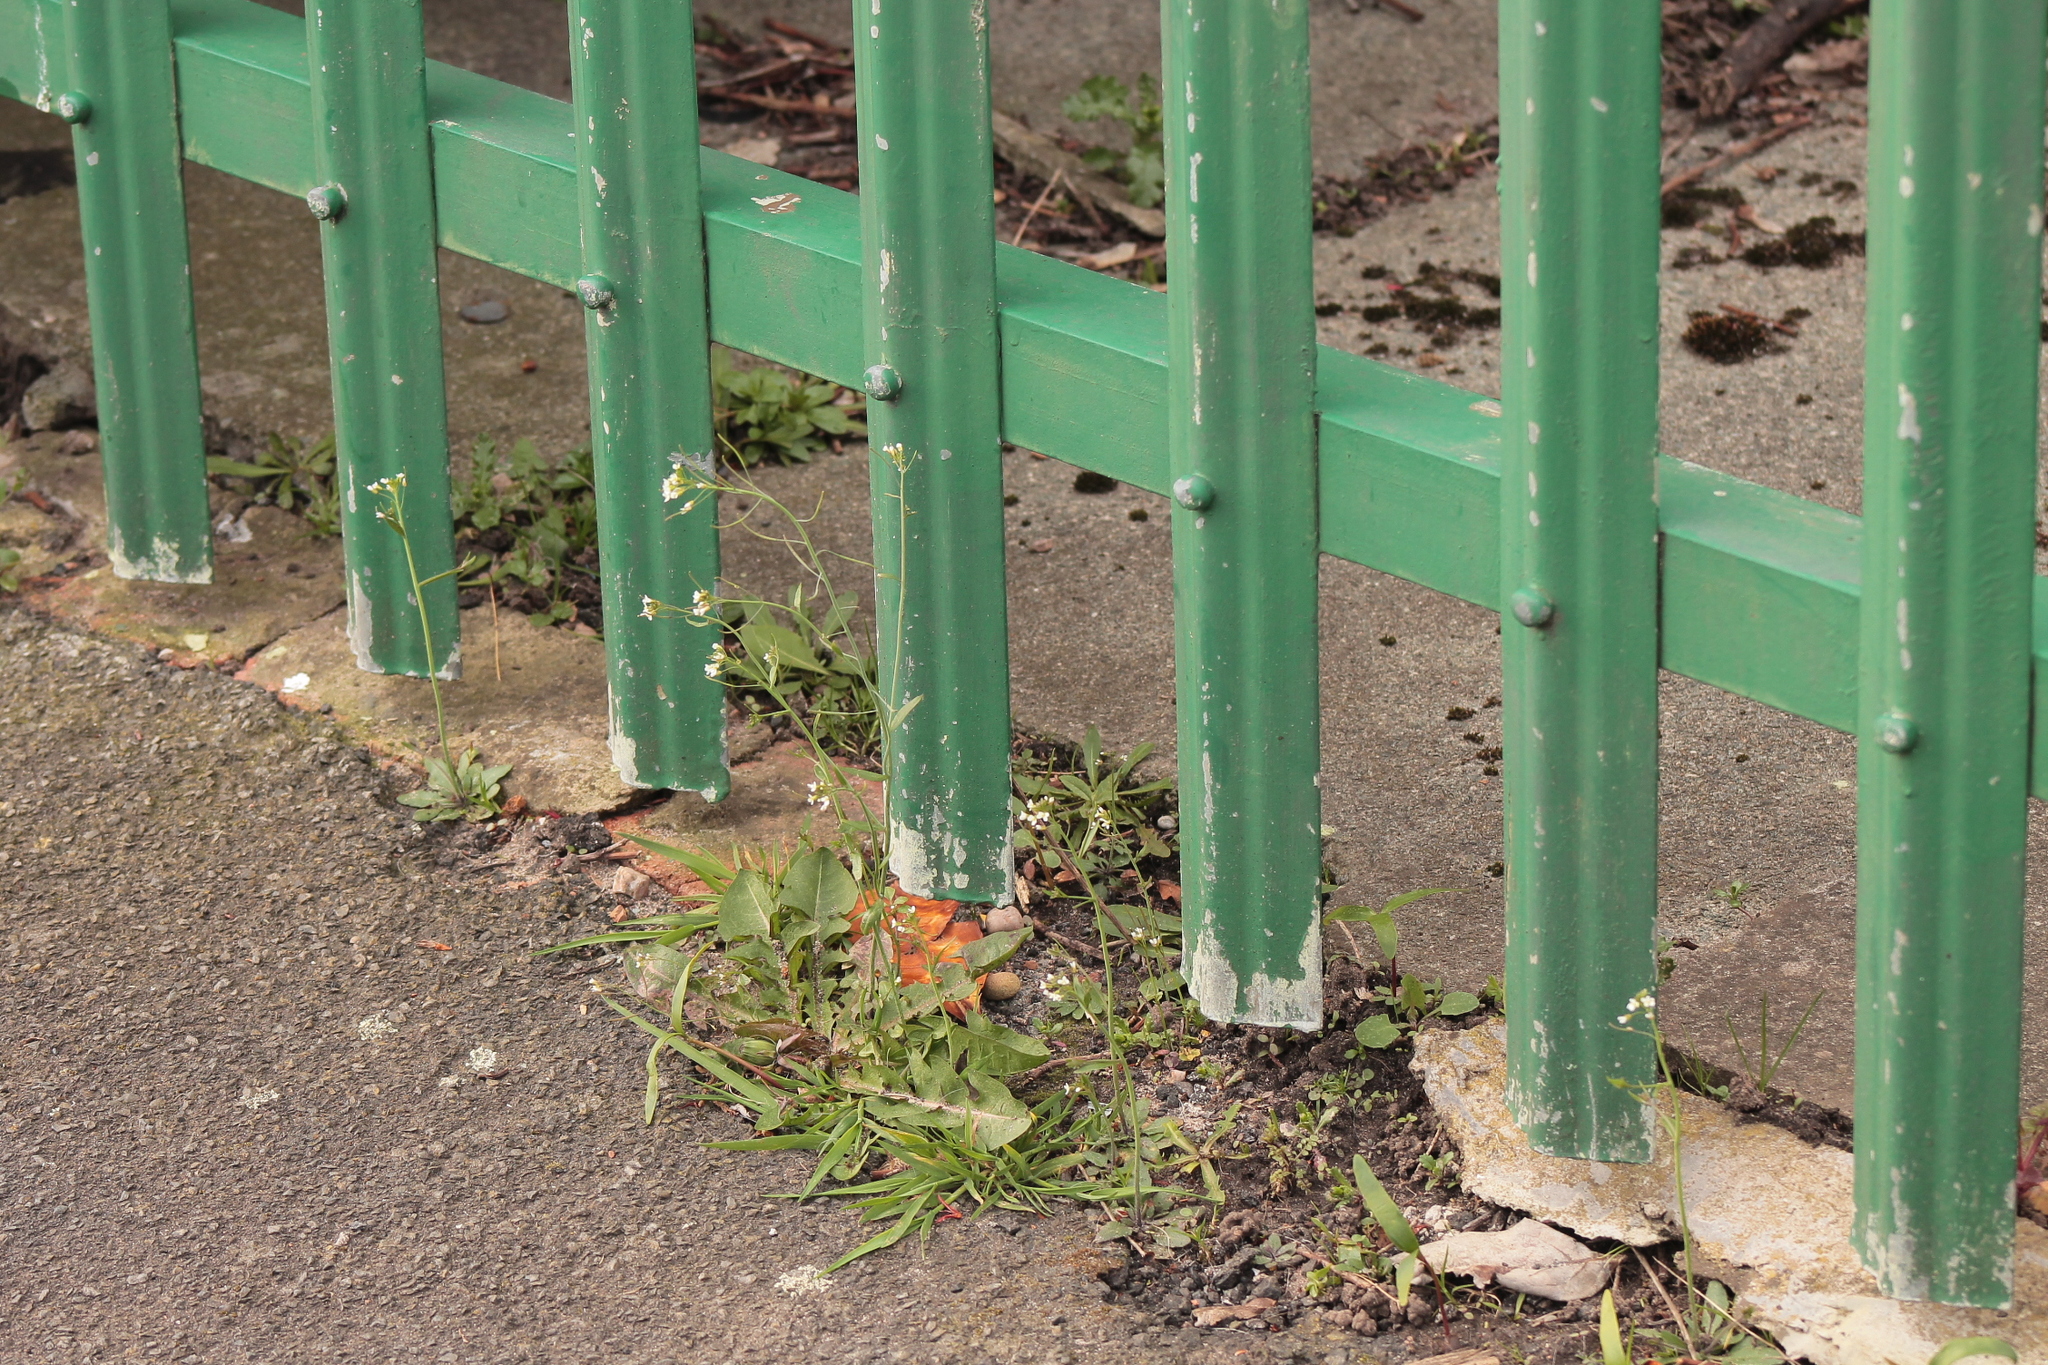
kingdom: Plantae
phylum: Tracheophyta
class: Magnoliopsida
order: Brassicales
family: Brassicaceae
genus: Arabidopsis
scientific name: Arabidopsis thaliana
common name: Thale cress
